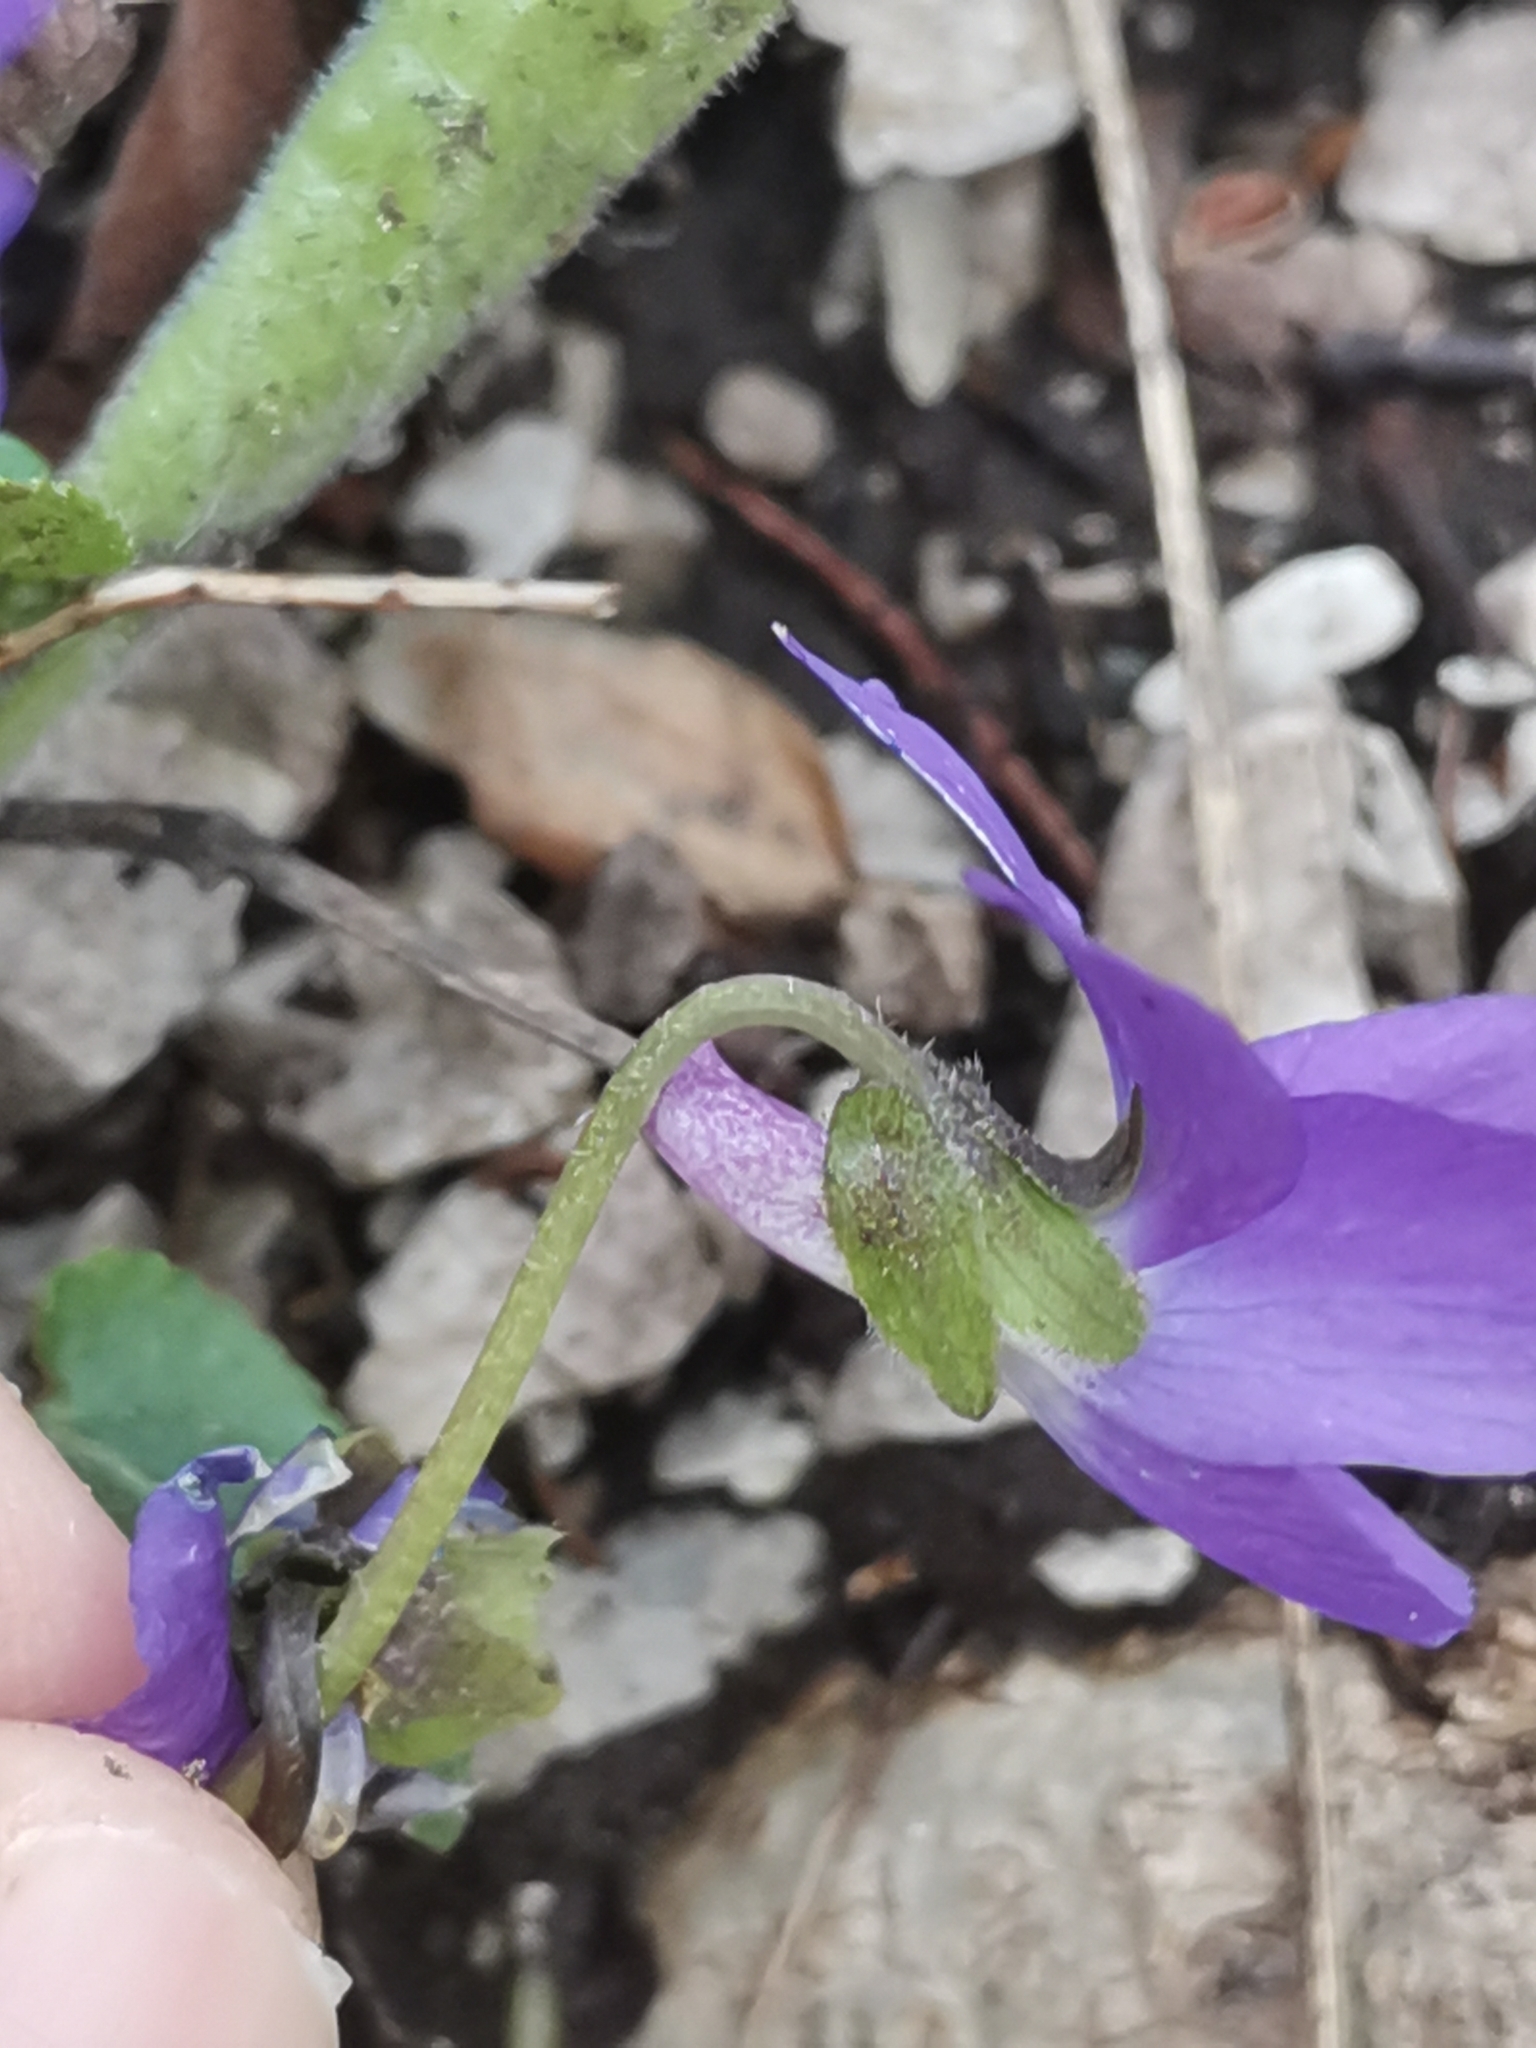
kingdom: Plantae
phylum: Tracheophyta
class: Magnoliopsida
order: Malpighiales
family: Violaceae
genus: Viola
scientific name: Viola collina
